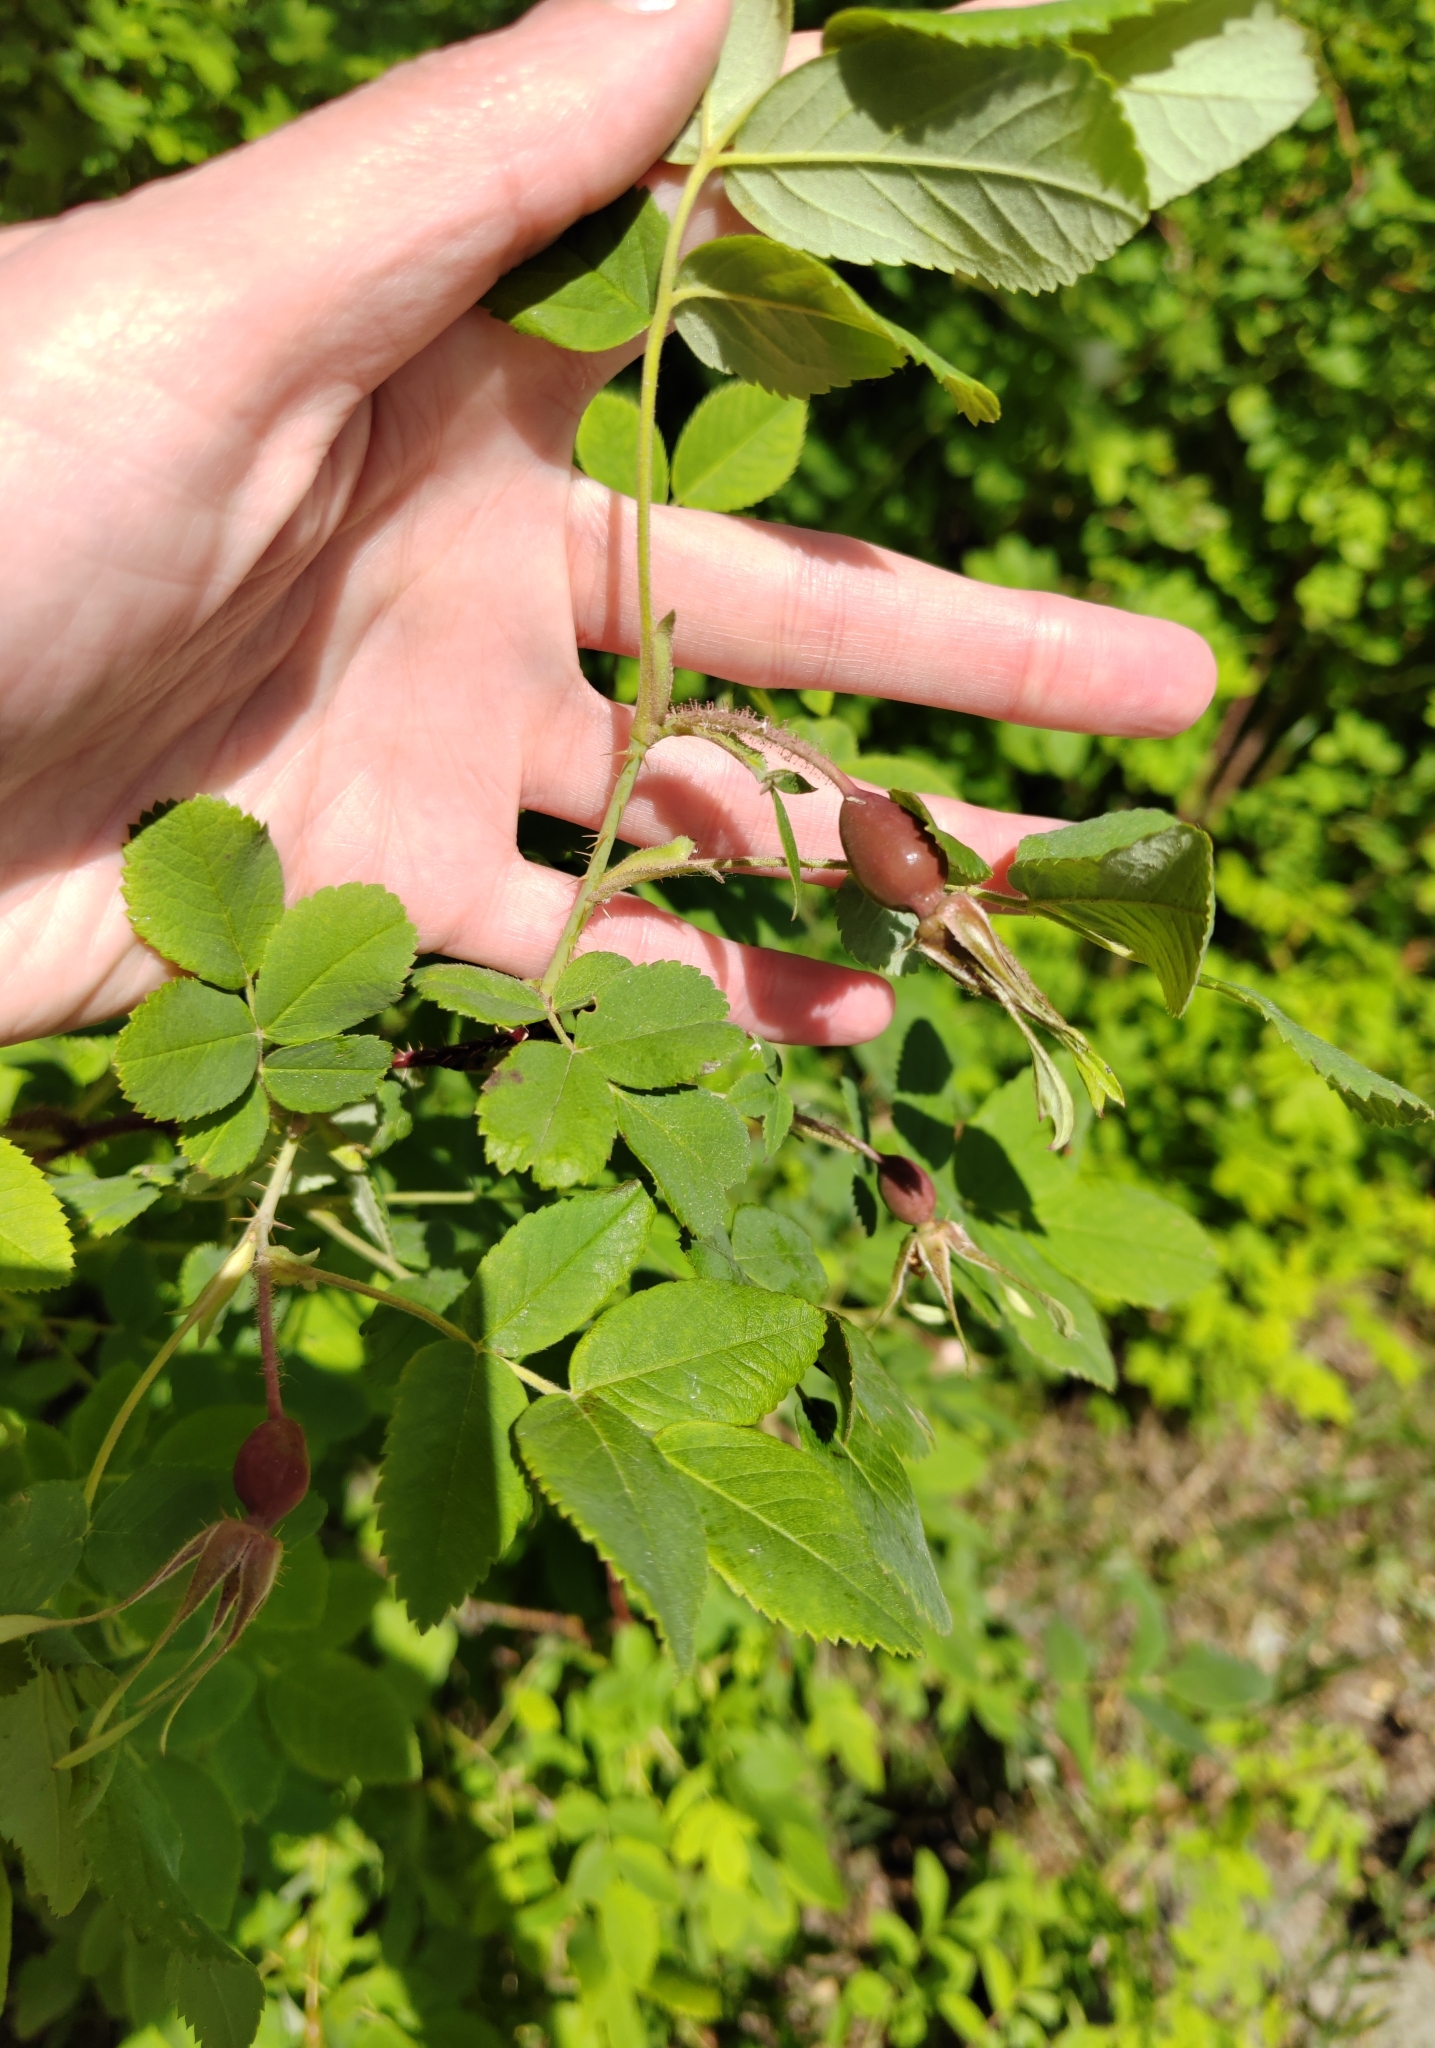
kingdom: Plantae
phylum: Tracheophyta
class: Magnoliopsida
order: Rosales
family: Rosaceae
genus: Rosa
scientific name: Rosa acicularis
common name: Prickly rose
